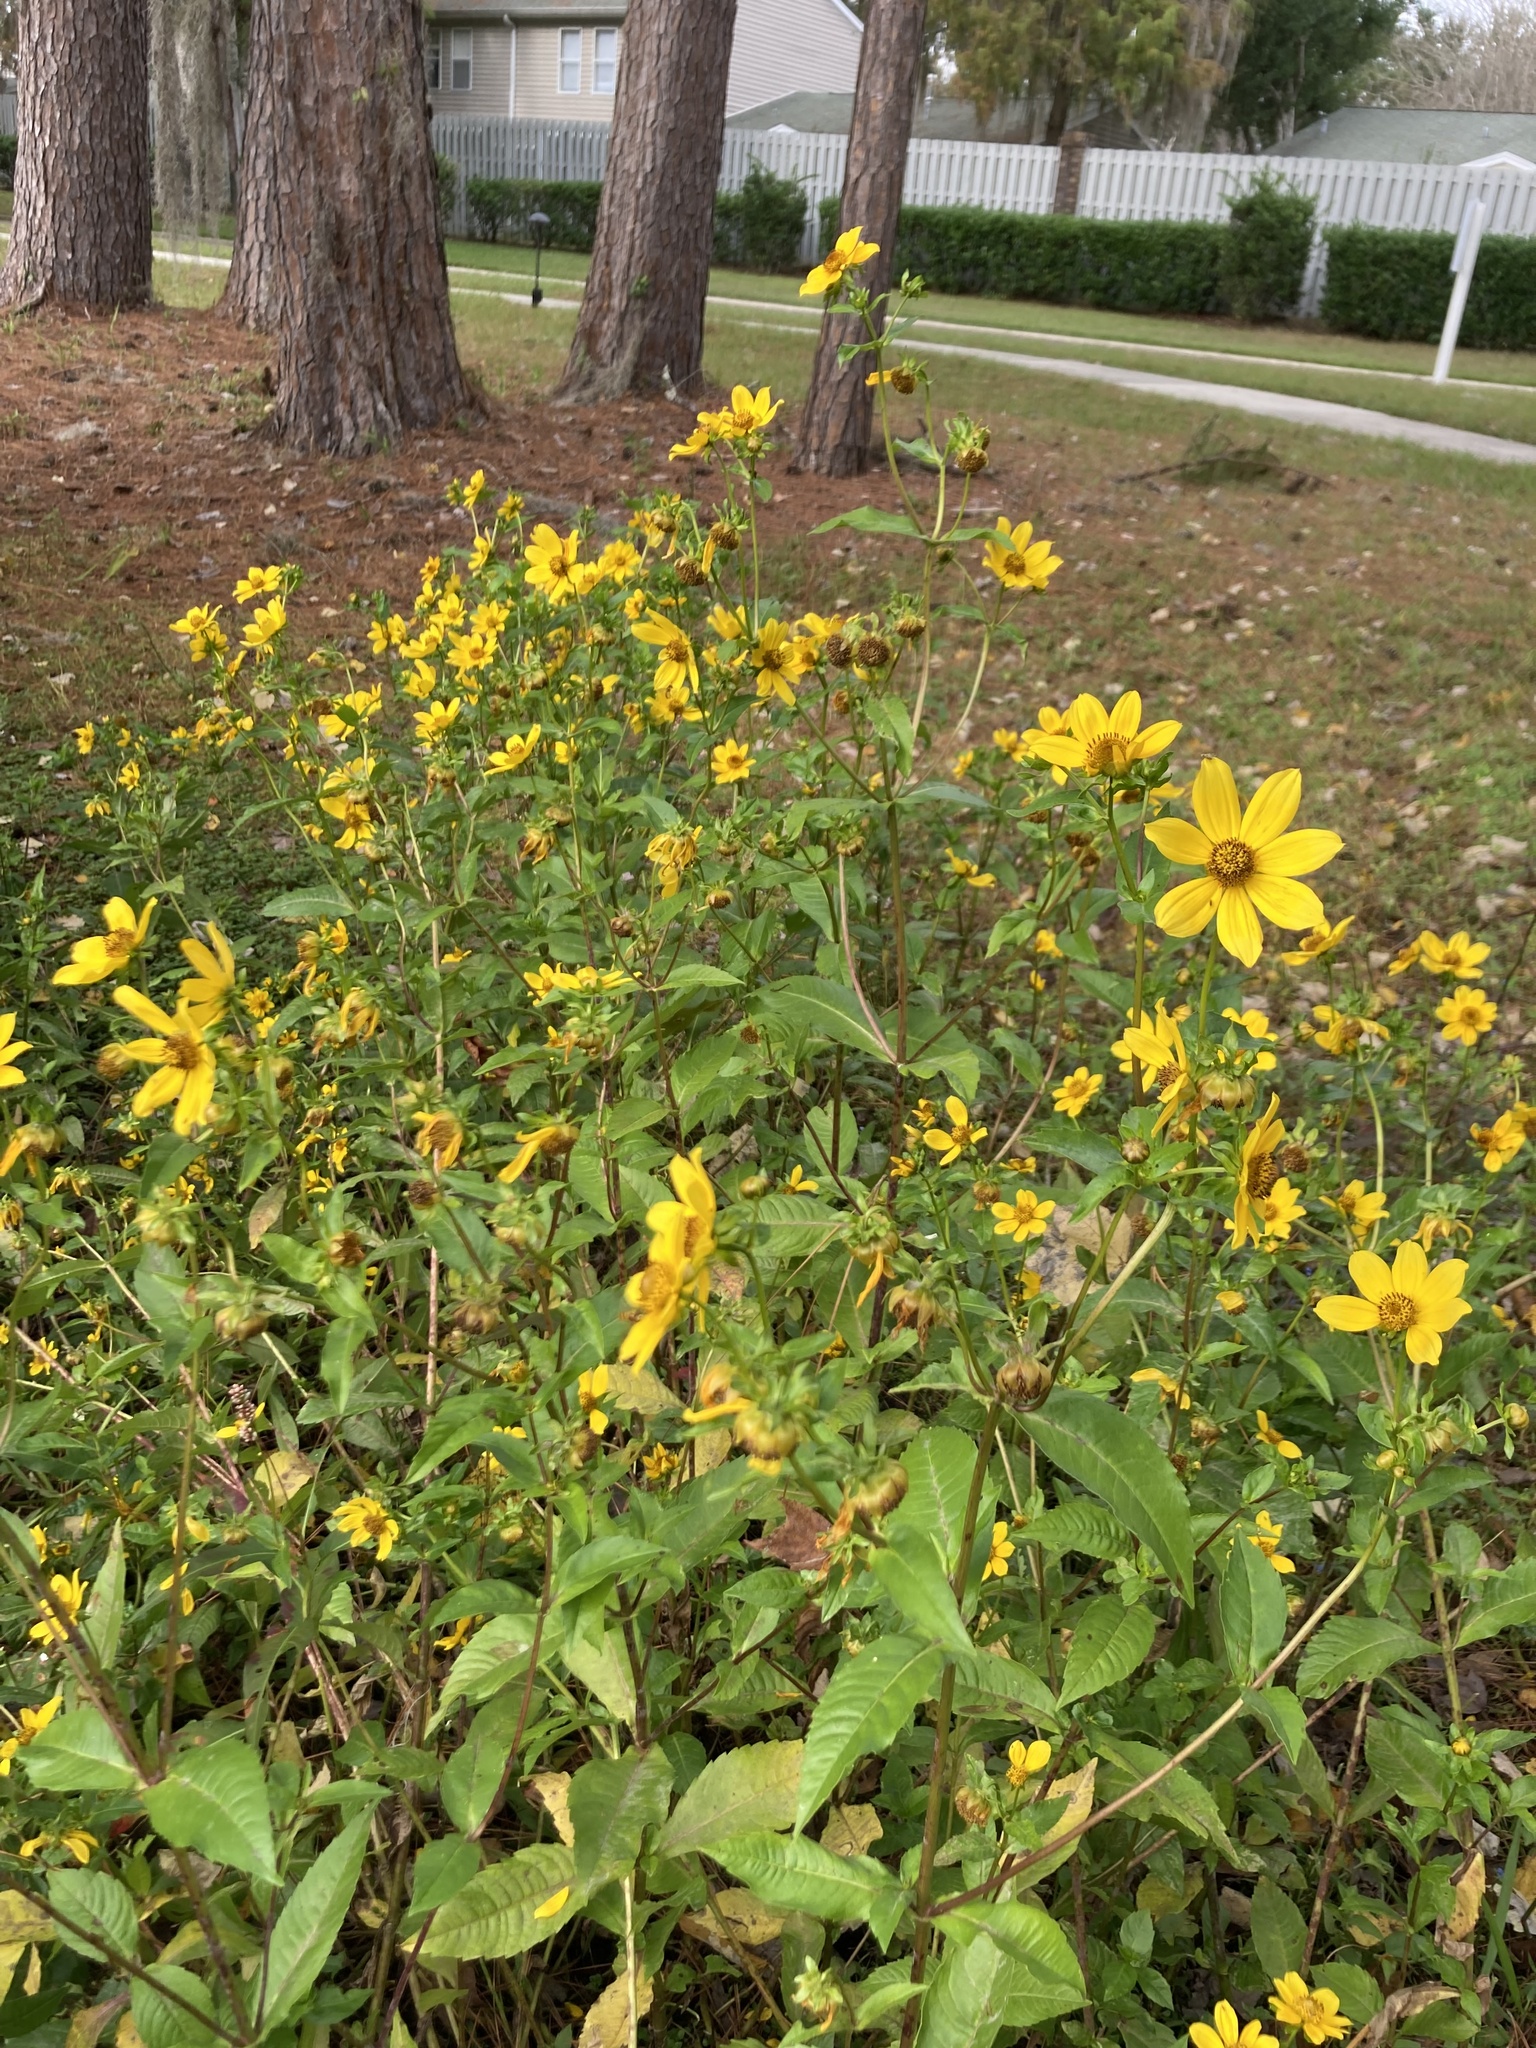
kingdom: Plantae
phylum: Tracheophyta
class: Magnoliopsida
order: Asterales
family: Asteraceae
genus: Bidens
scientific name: Bidens laevis
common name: Larger bur-marigold
